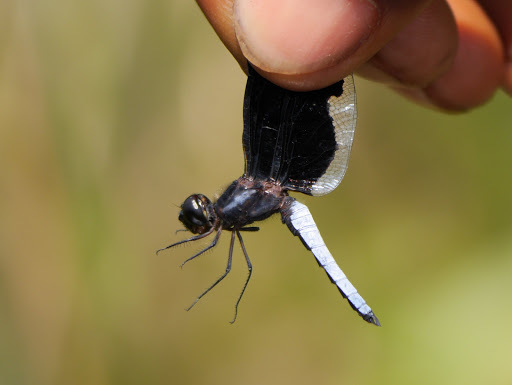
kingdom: Animalia
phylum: Arthropoda
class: Insecta
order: Odonata
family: Libellulidae
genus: Palpopleura
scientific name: Palpopleura lucia
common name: Lucia widow
